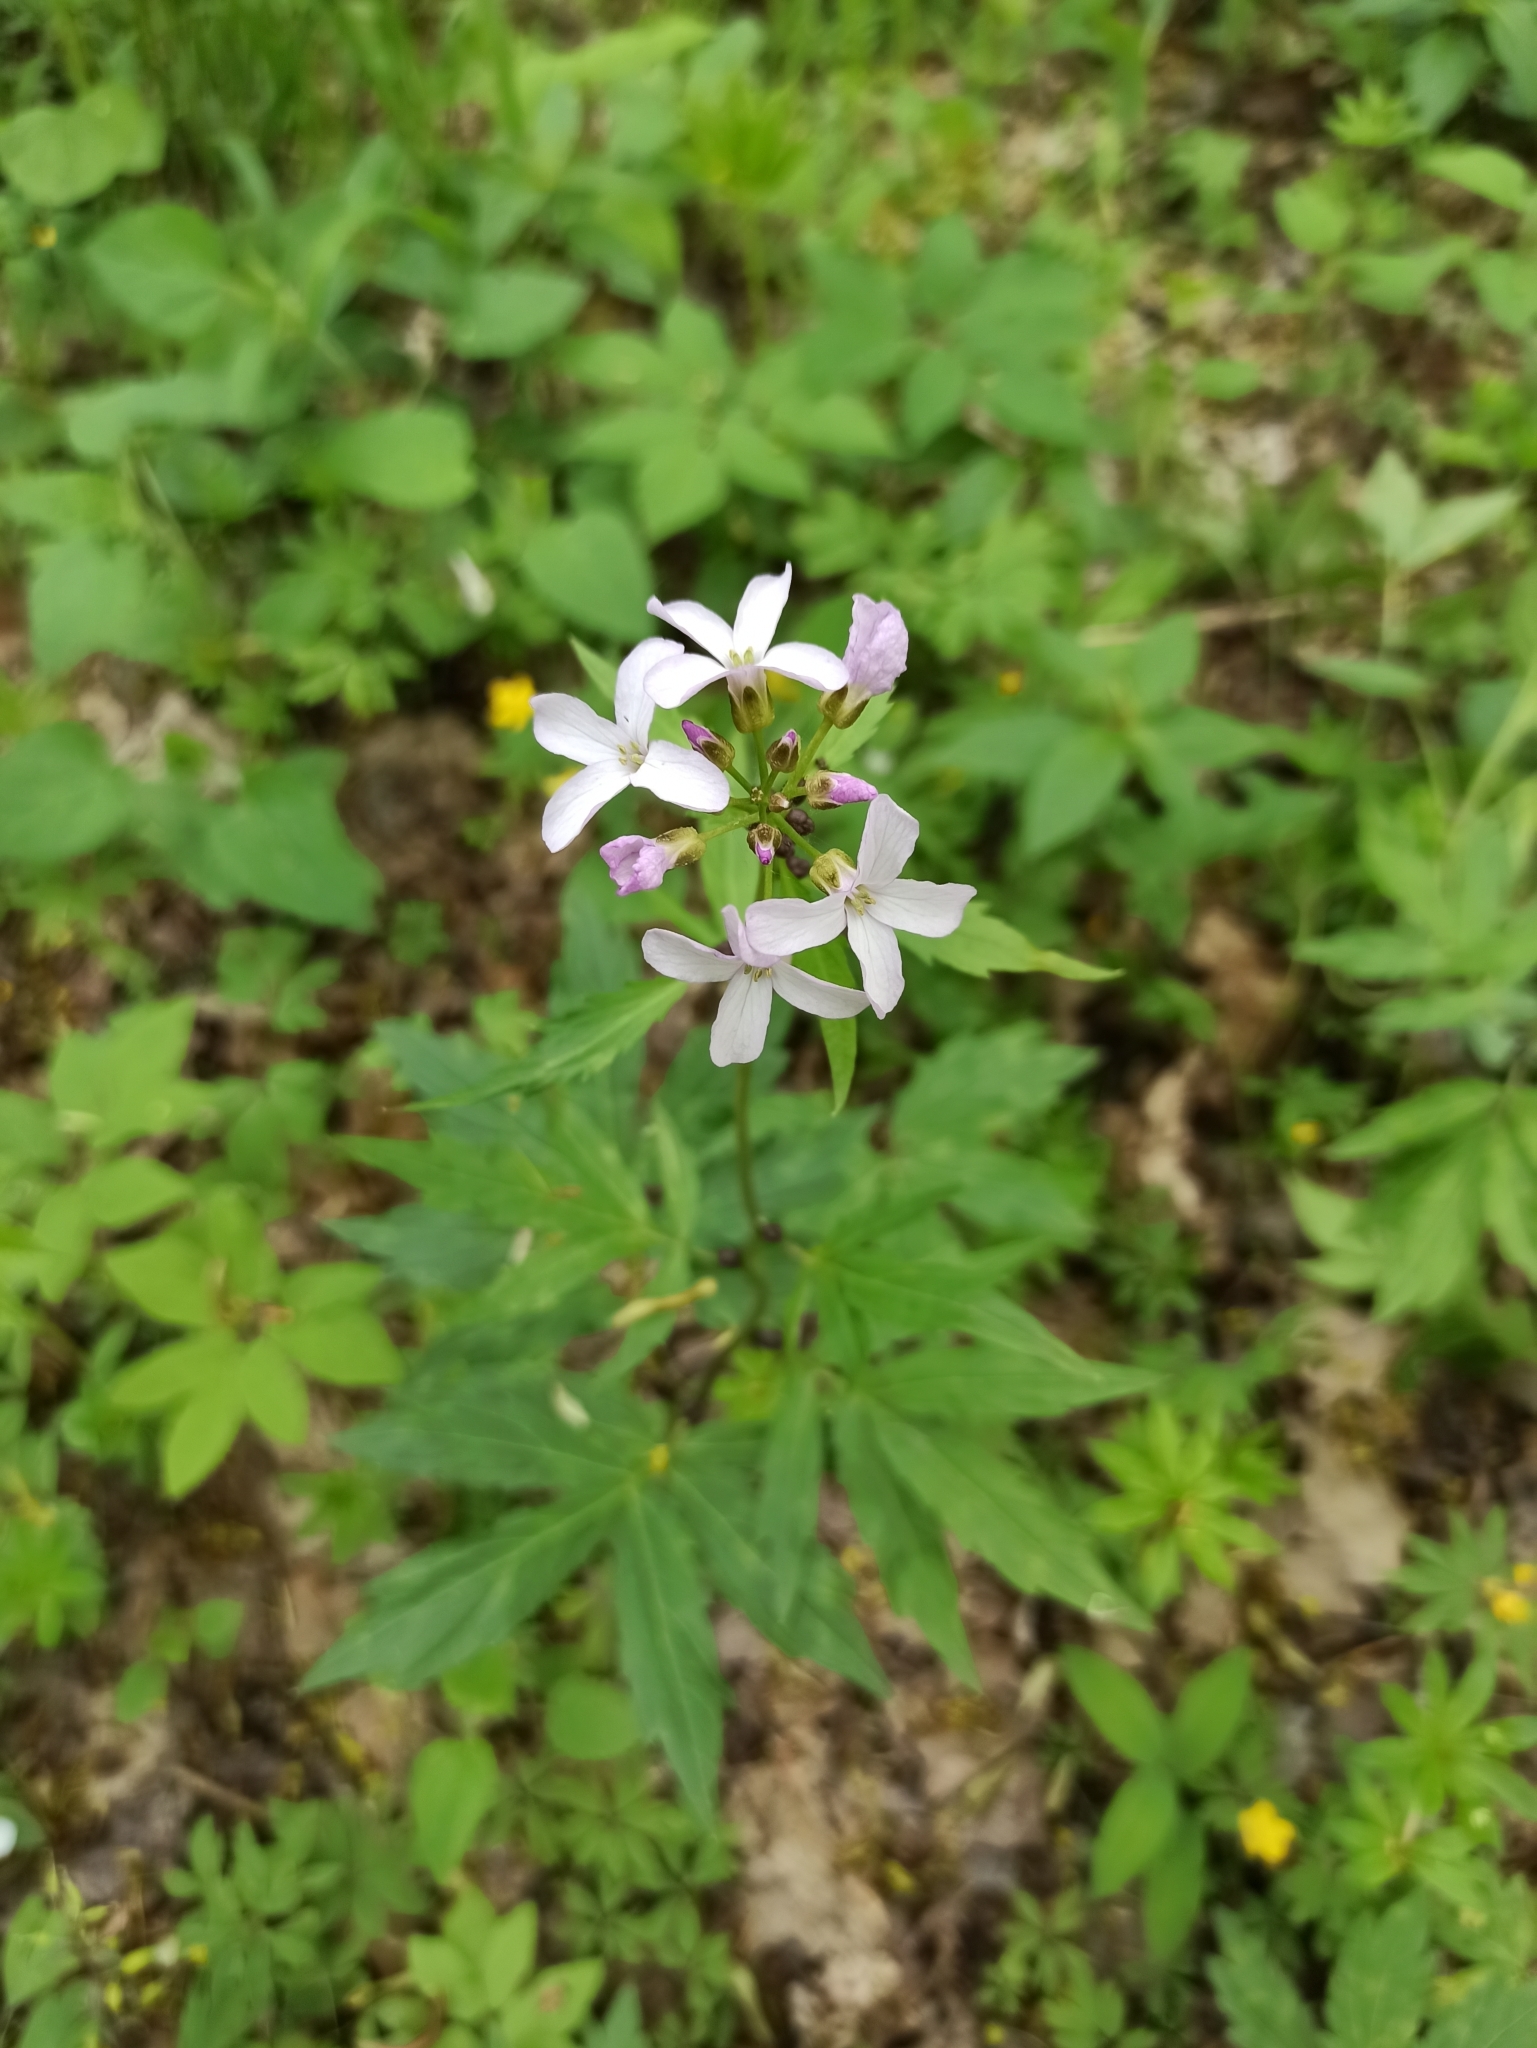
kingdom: Plantae
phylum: Tracheophyta
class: Magnoliopsida
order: Brassicales
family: Brassicaceae
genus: Cardamine
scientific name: Cardamine bulbifera
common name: Coralroot bittercress
